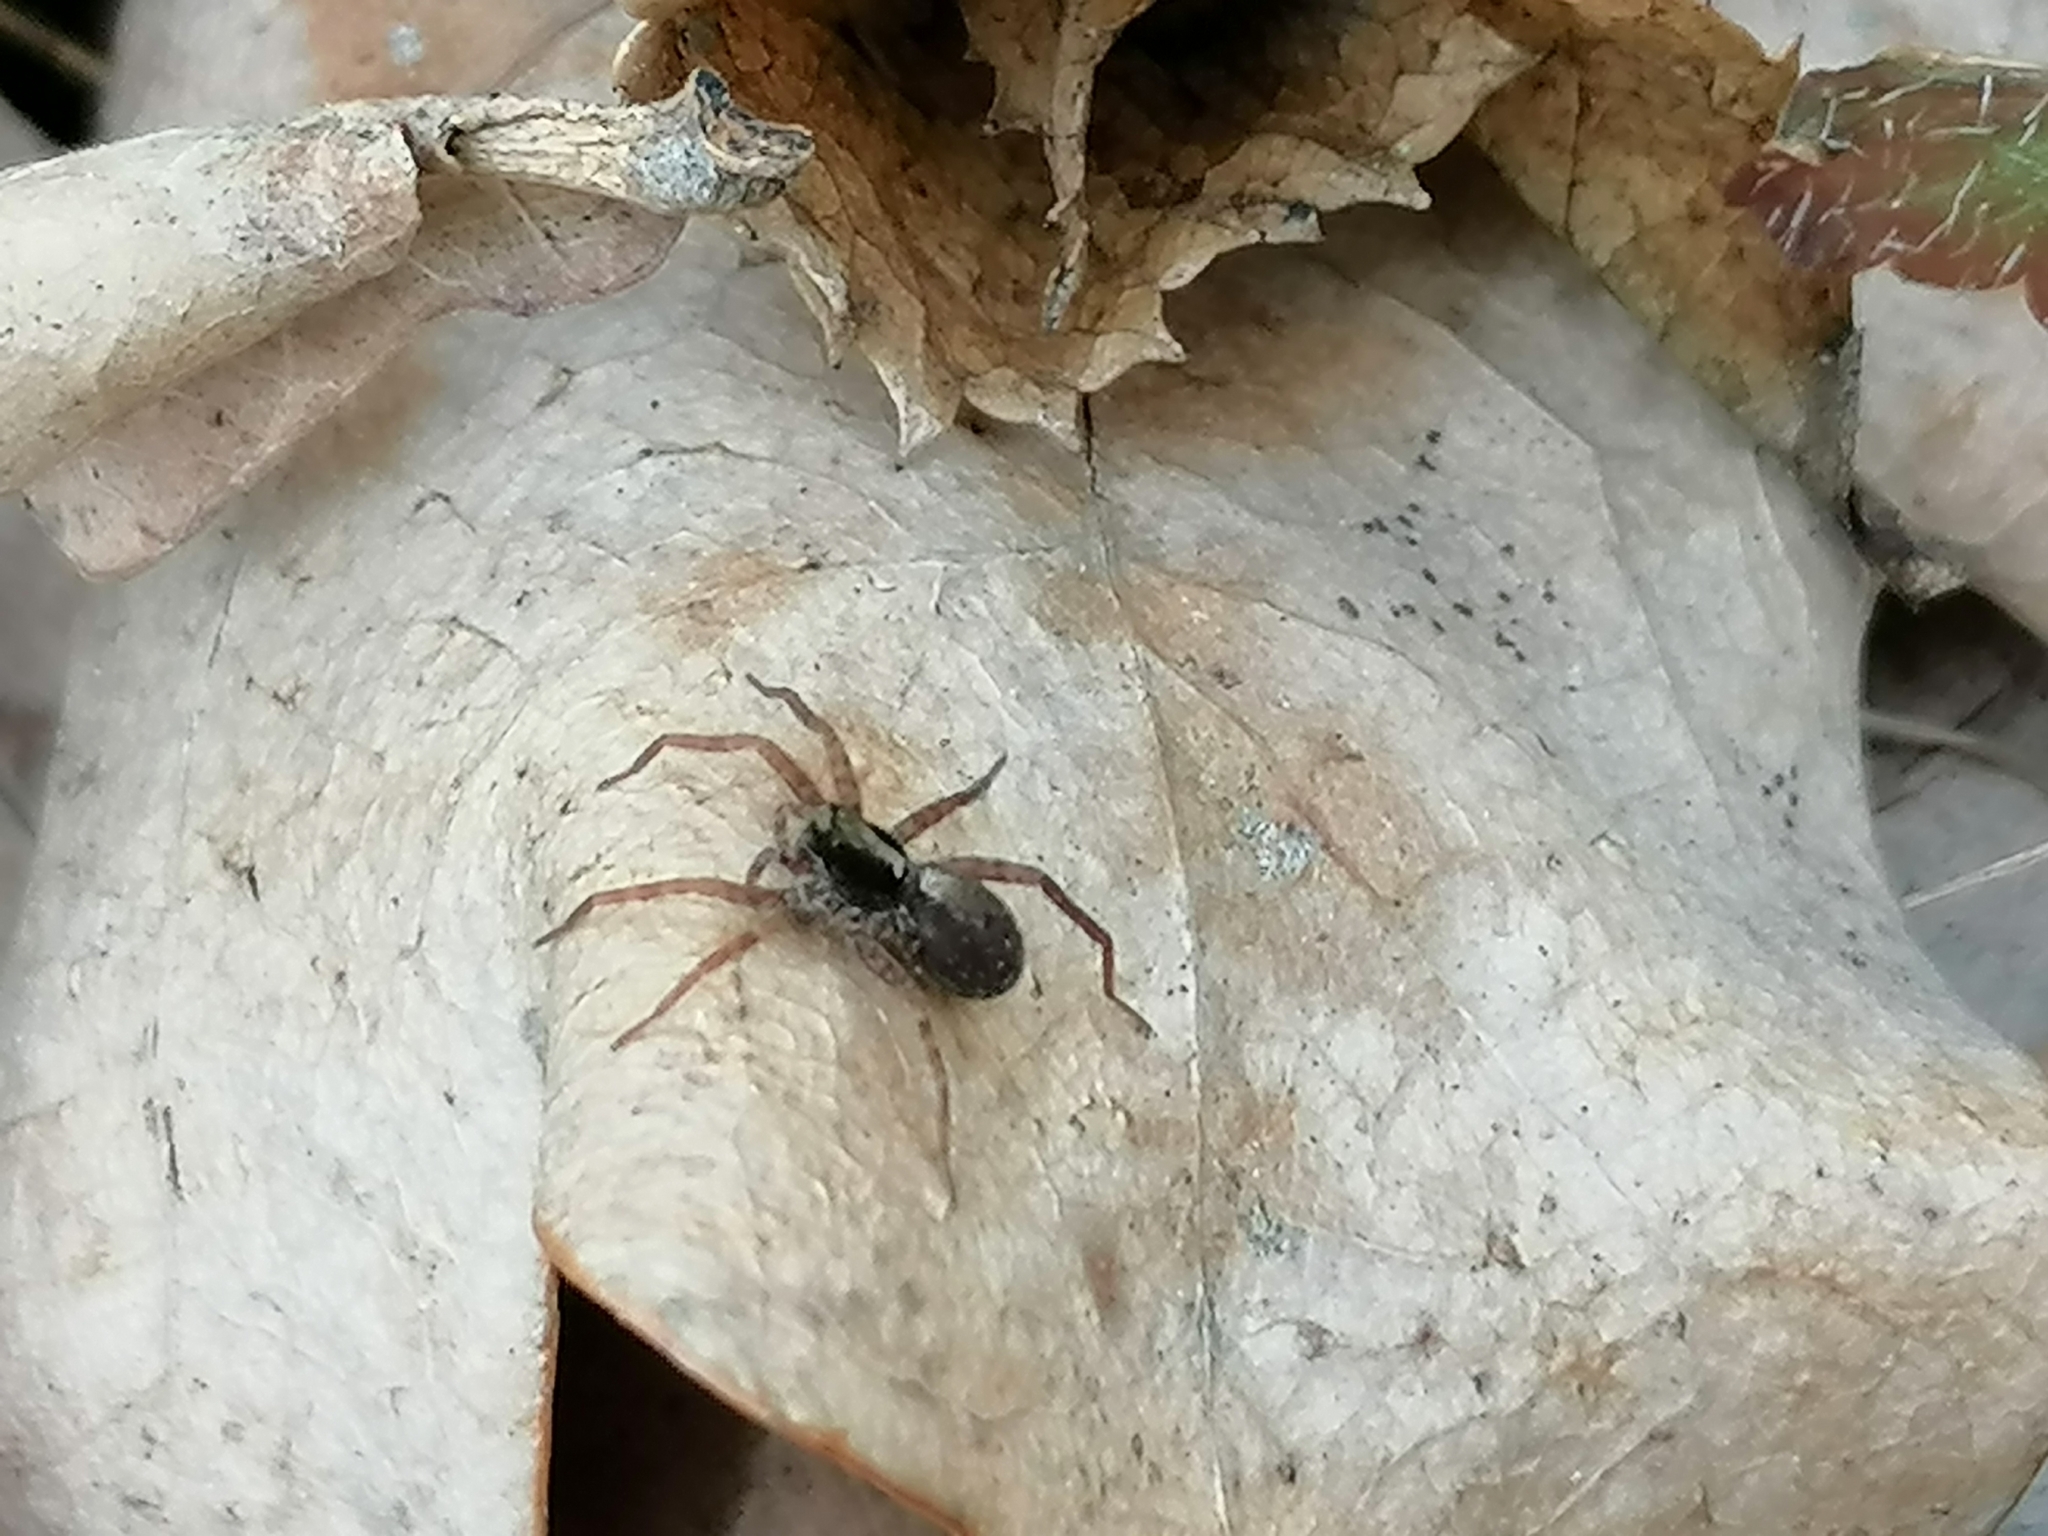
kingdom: Animalia
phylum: Arthropoda
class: Arachnida
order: Araneae
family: Lycosidae
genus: Pardosa
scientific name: Pardosa
